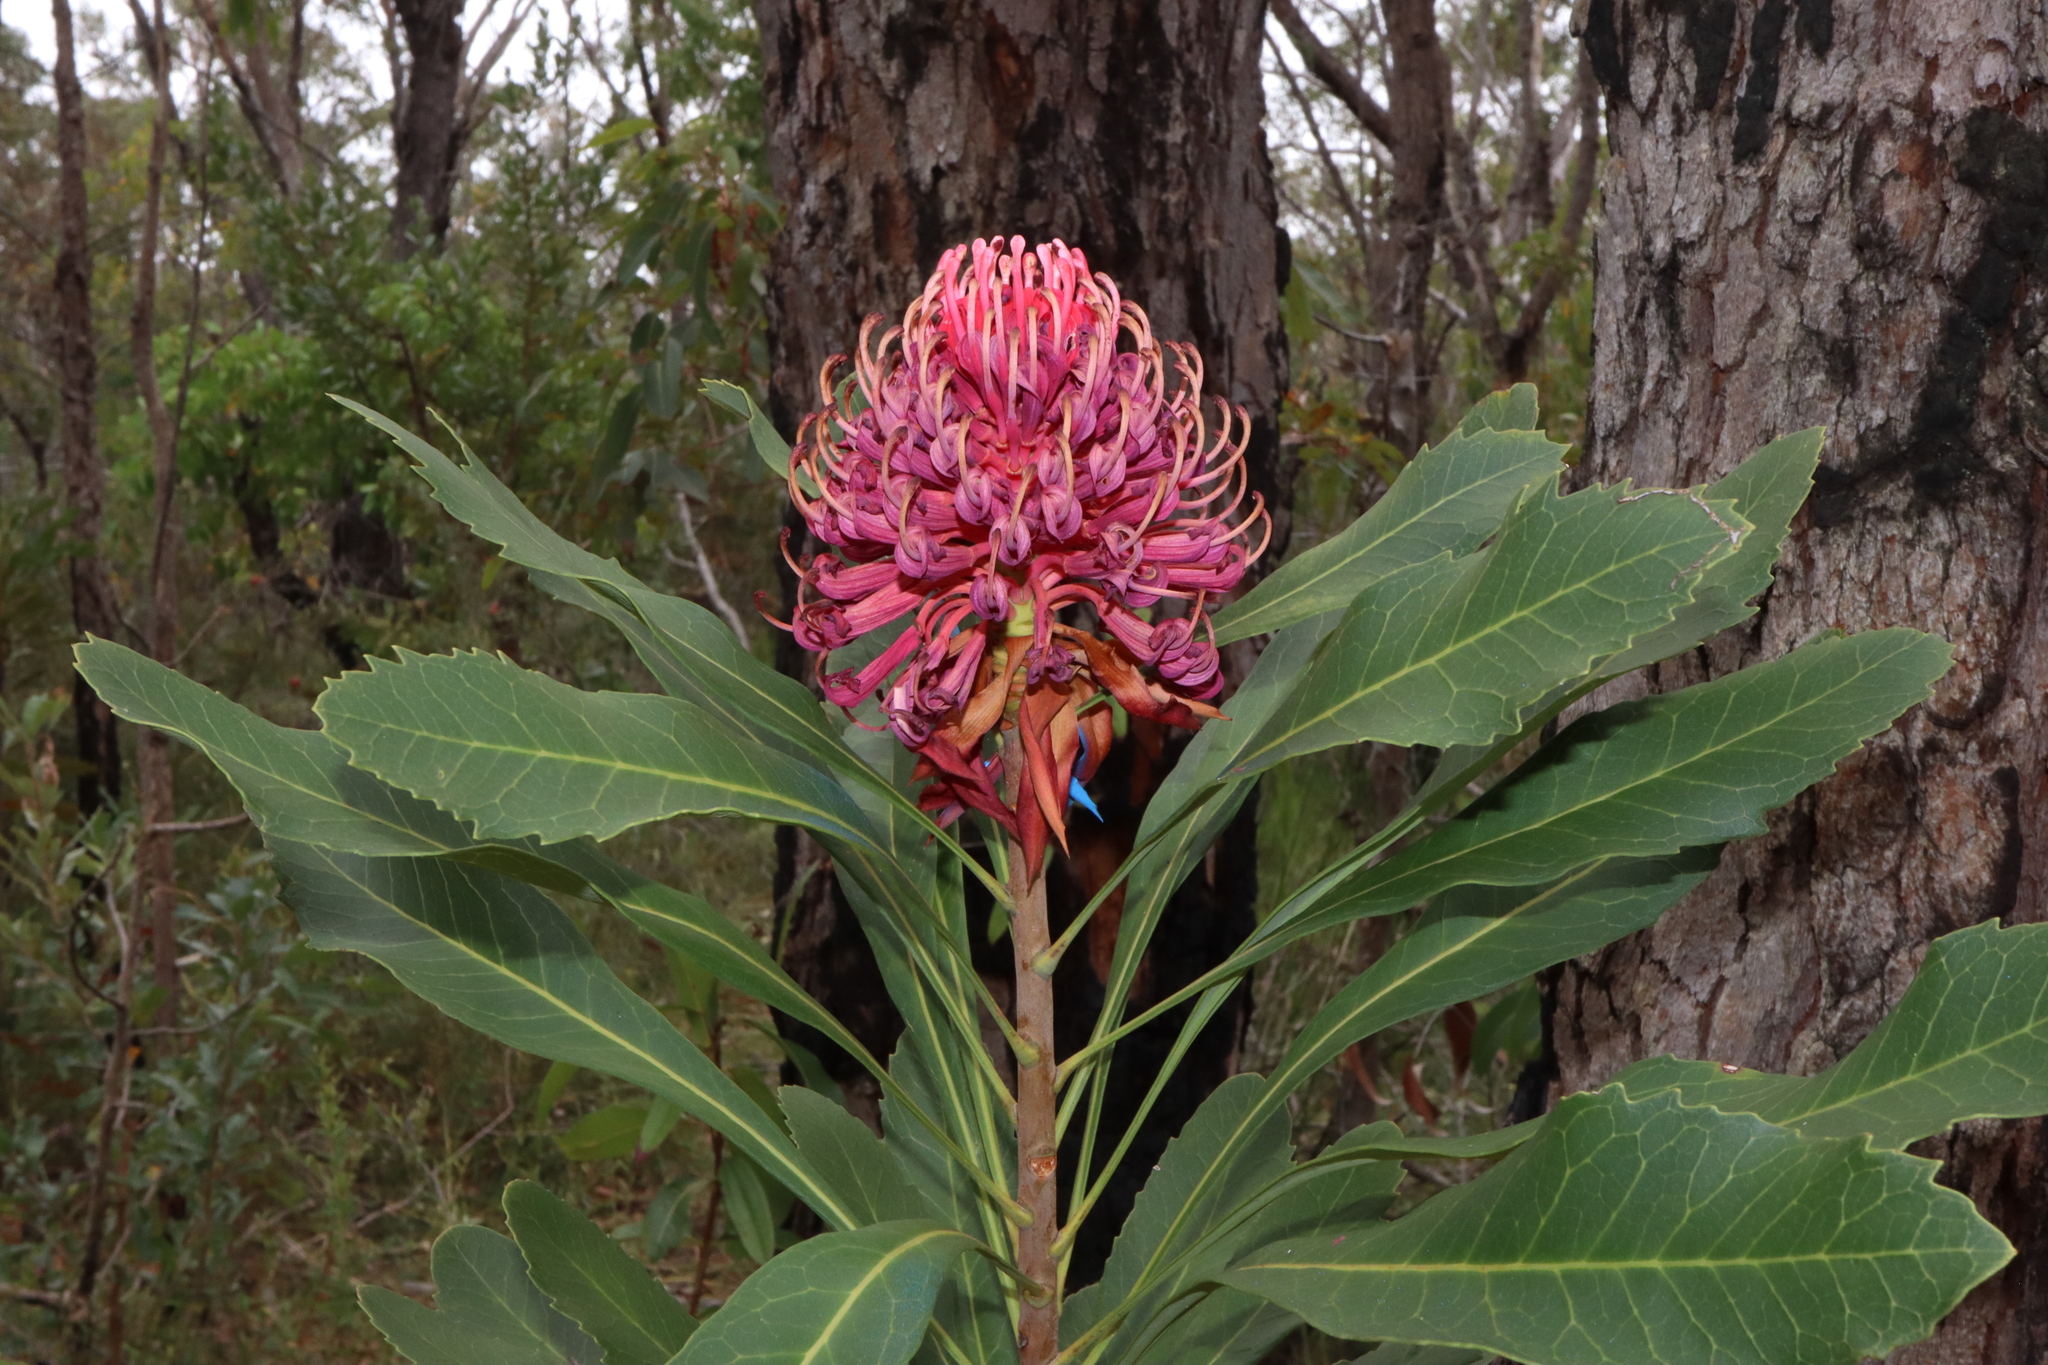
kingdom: Plantae
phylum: Tracheophyta
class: Magnoliopsida
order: Proteales
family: Proteaceae
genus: Telopea
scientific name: Telopea speciosissima
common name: New south wales waratah
